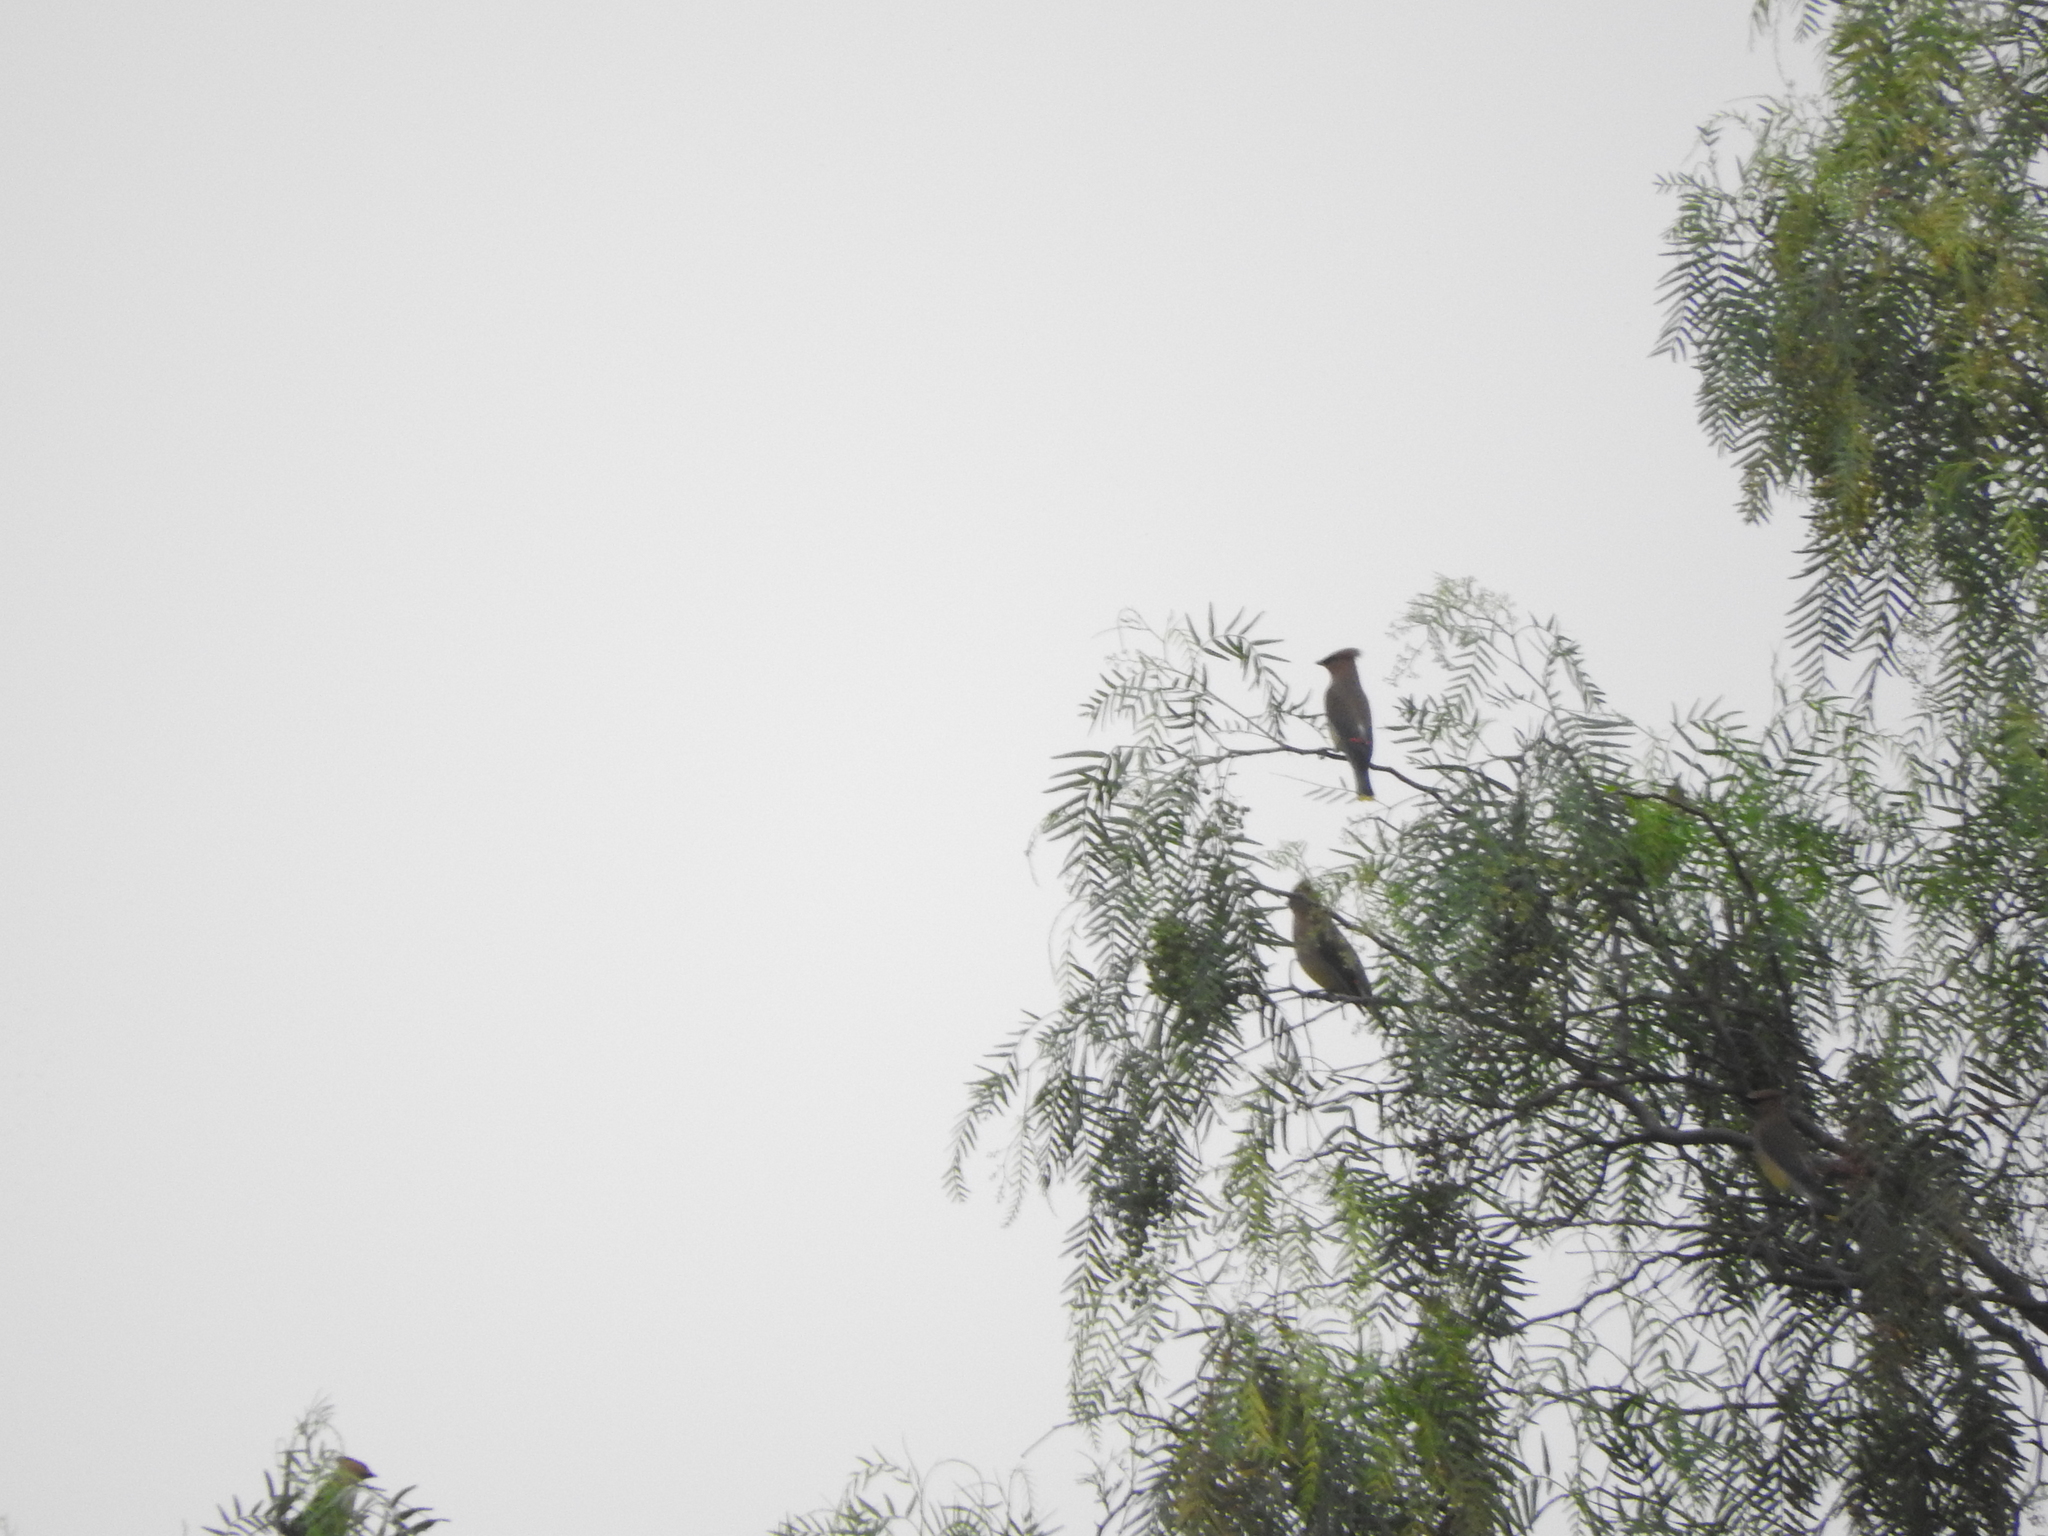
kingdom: Animalia
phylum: Chordata
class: Aves
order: Passeriformes
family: Bombycillidae
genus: Bombycilla
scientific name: Bombycilla cedrorum
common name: Cedar waxwing
